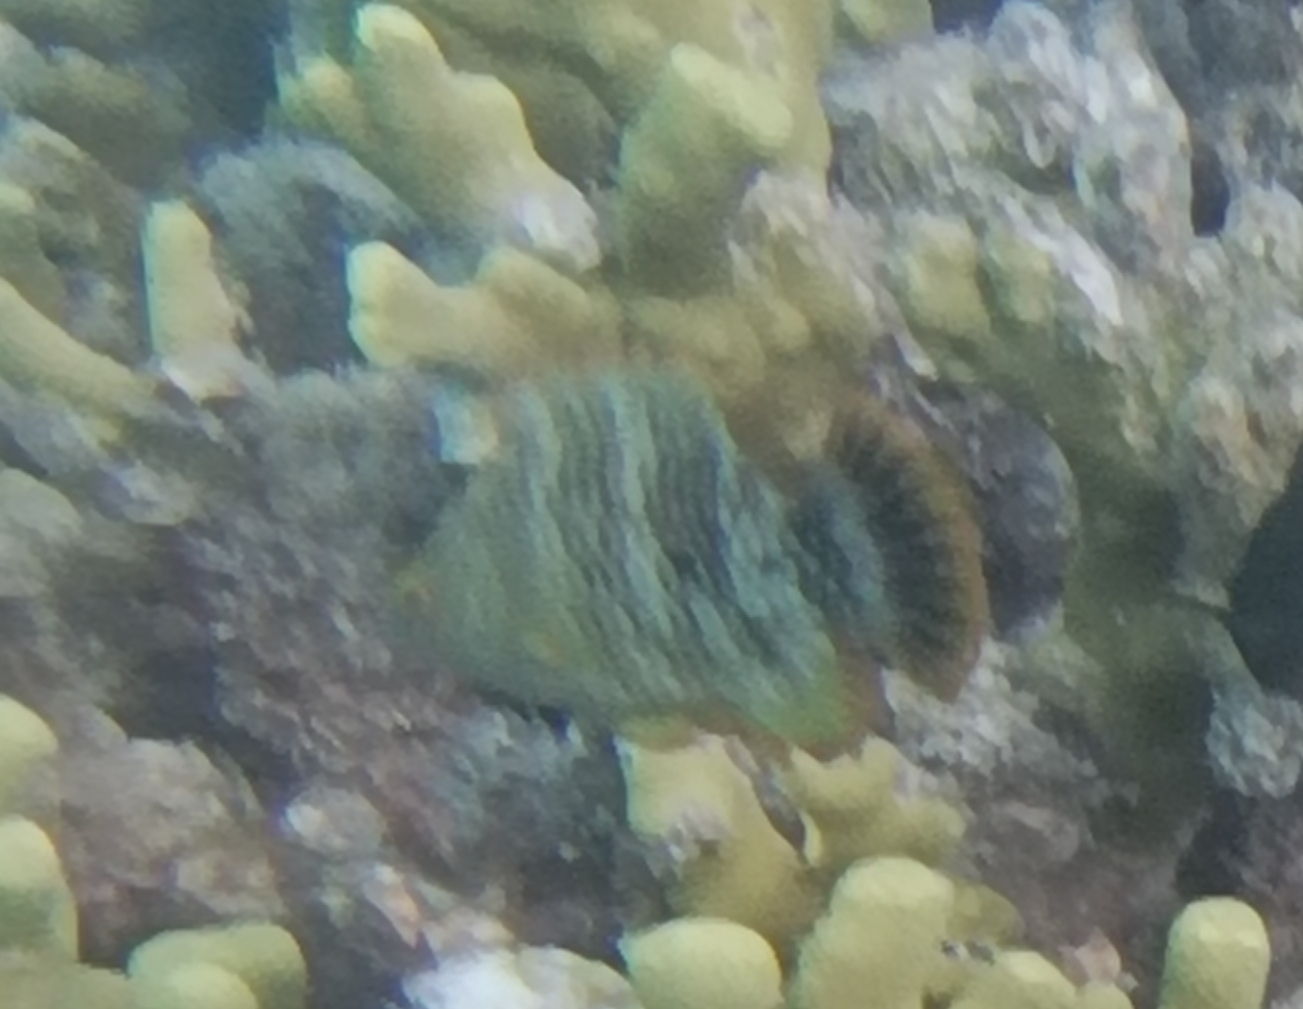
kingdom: Animalia
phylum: Chordata
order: Perciformes
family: Labridae
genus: Cheilinus
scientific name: Cheilinus trilobatus
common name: Tripletail maori wrasse
